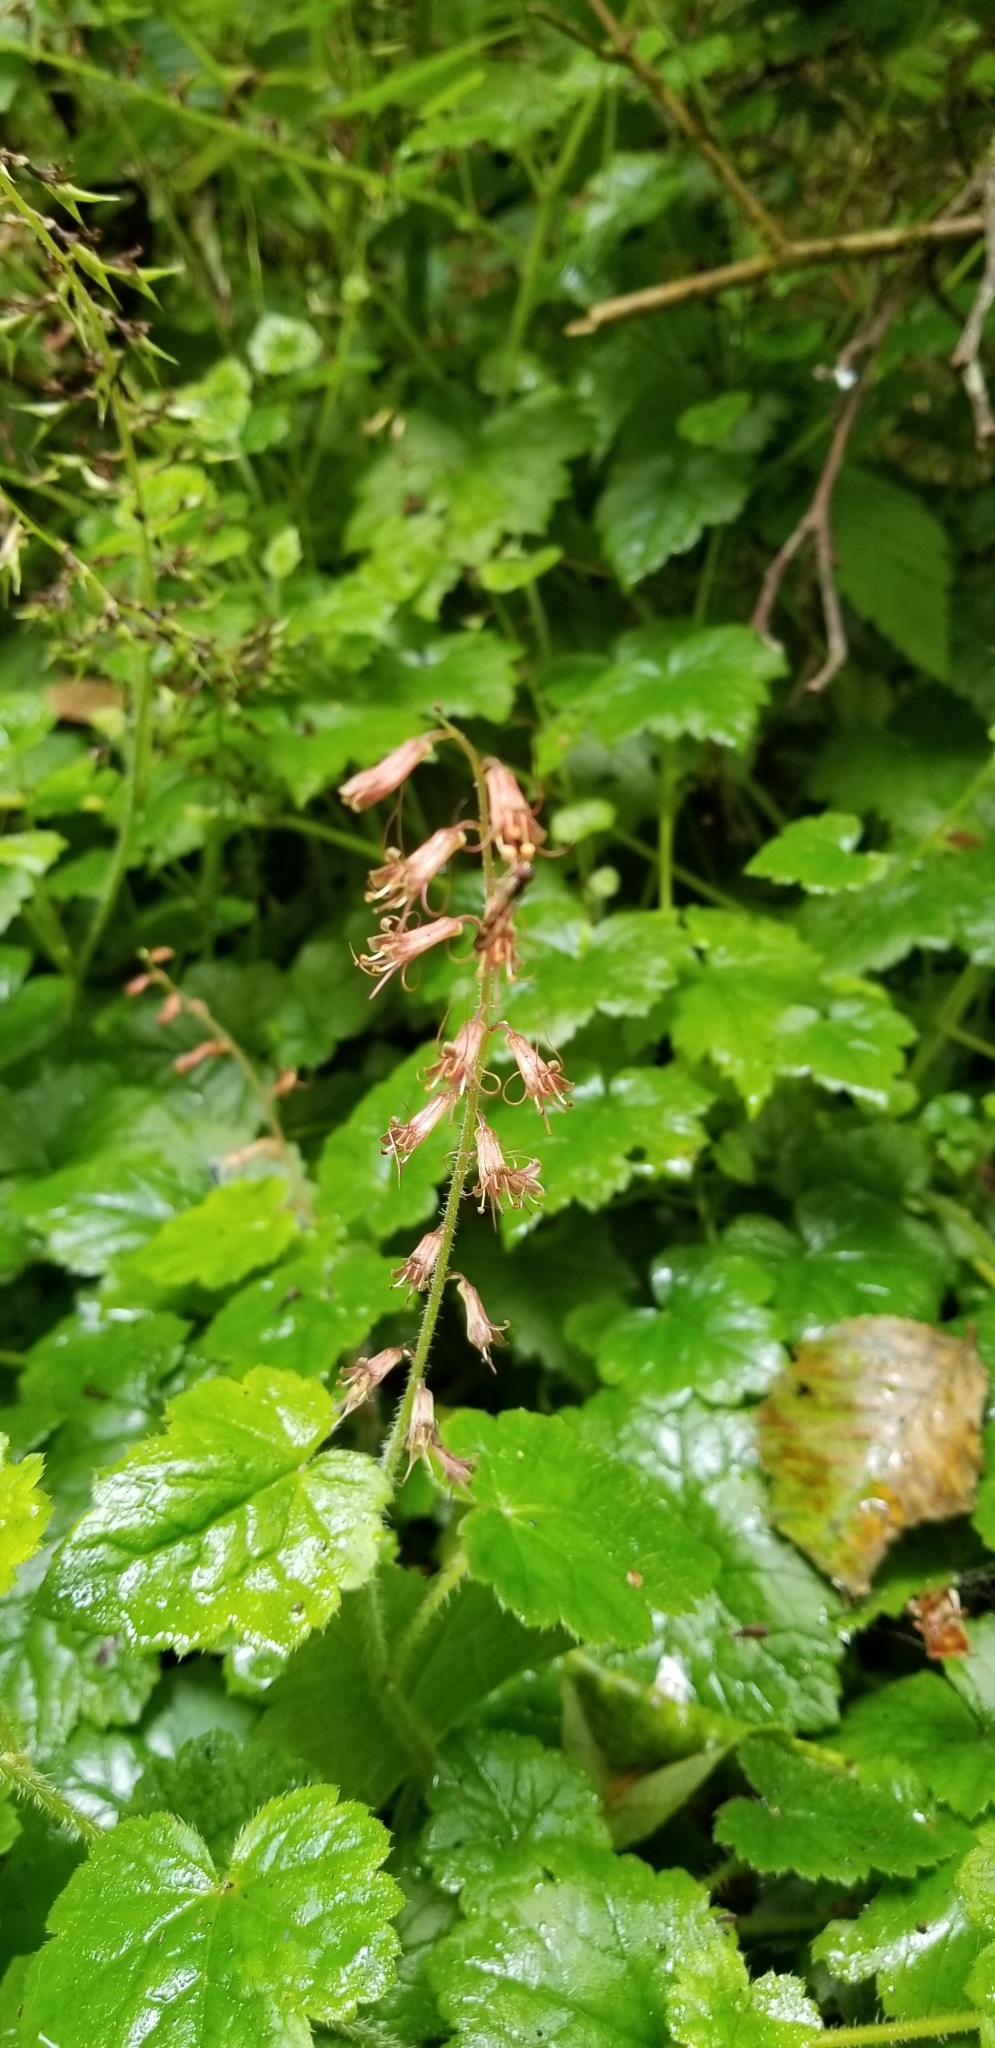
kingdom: Plantae
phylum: Tracheophyta
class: Magnoliopsida
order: Saxifragales
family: Saxifragaceae
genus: Tolmiea
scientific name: Tolmiea diplomenziesii
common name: Youth on age
